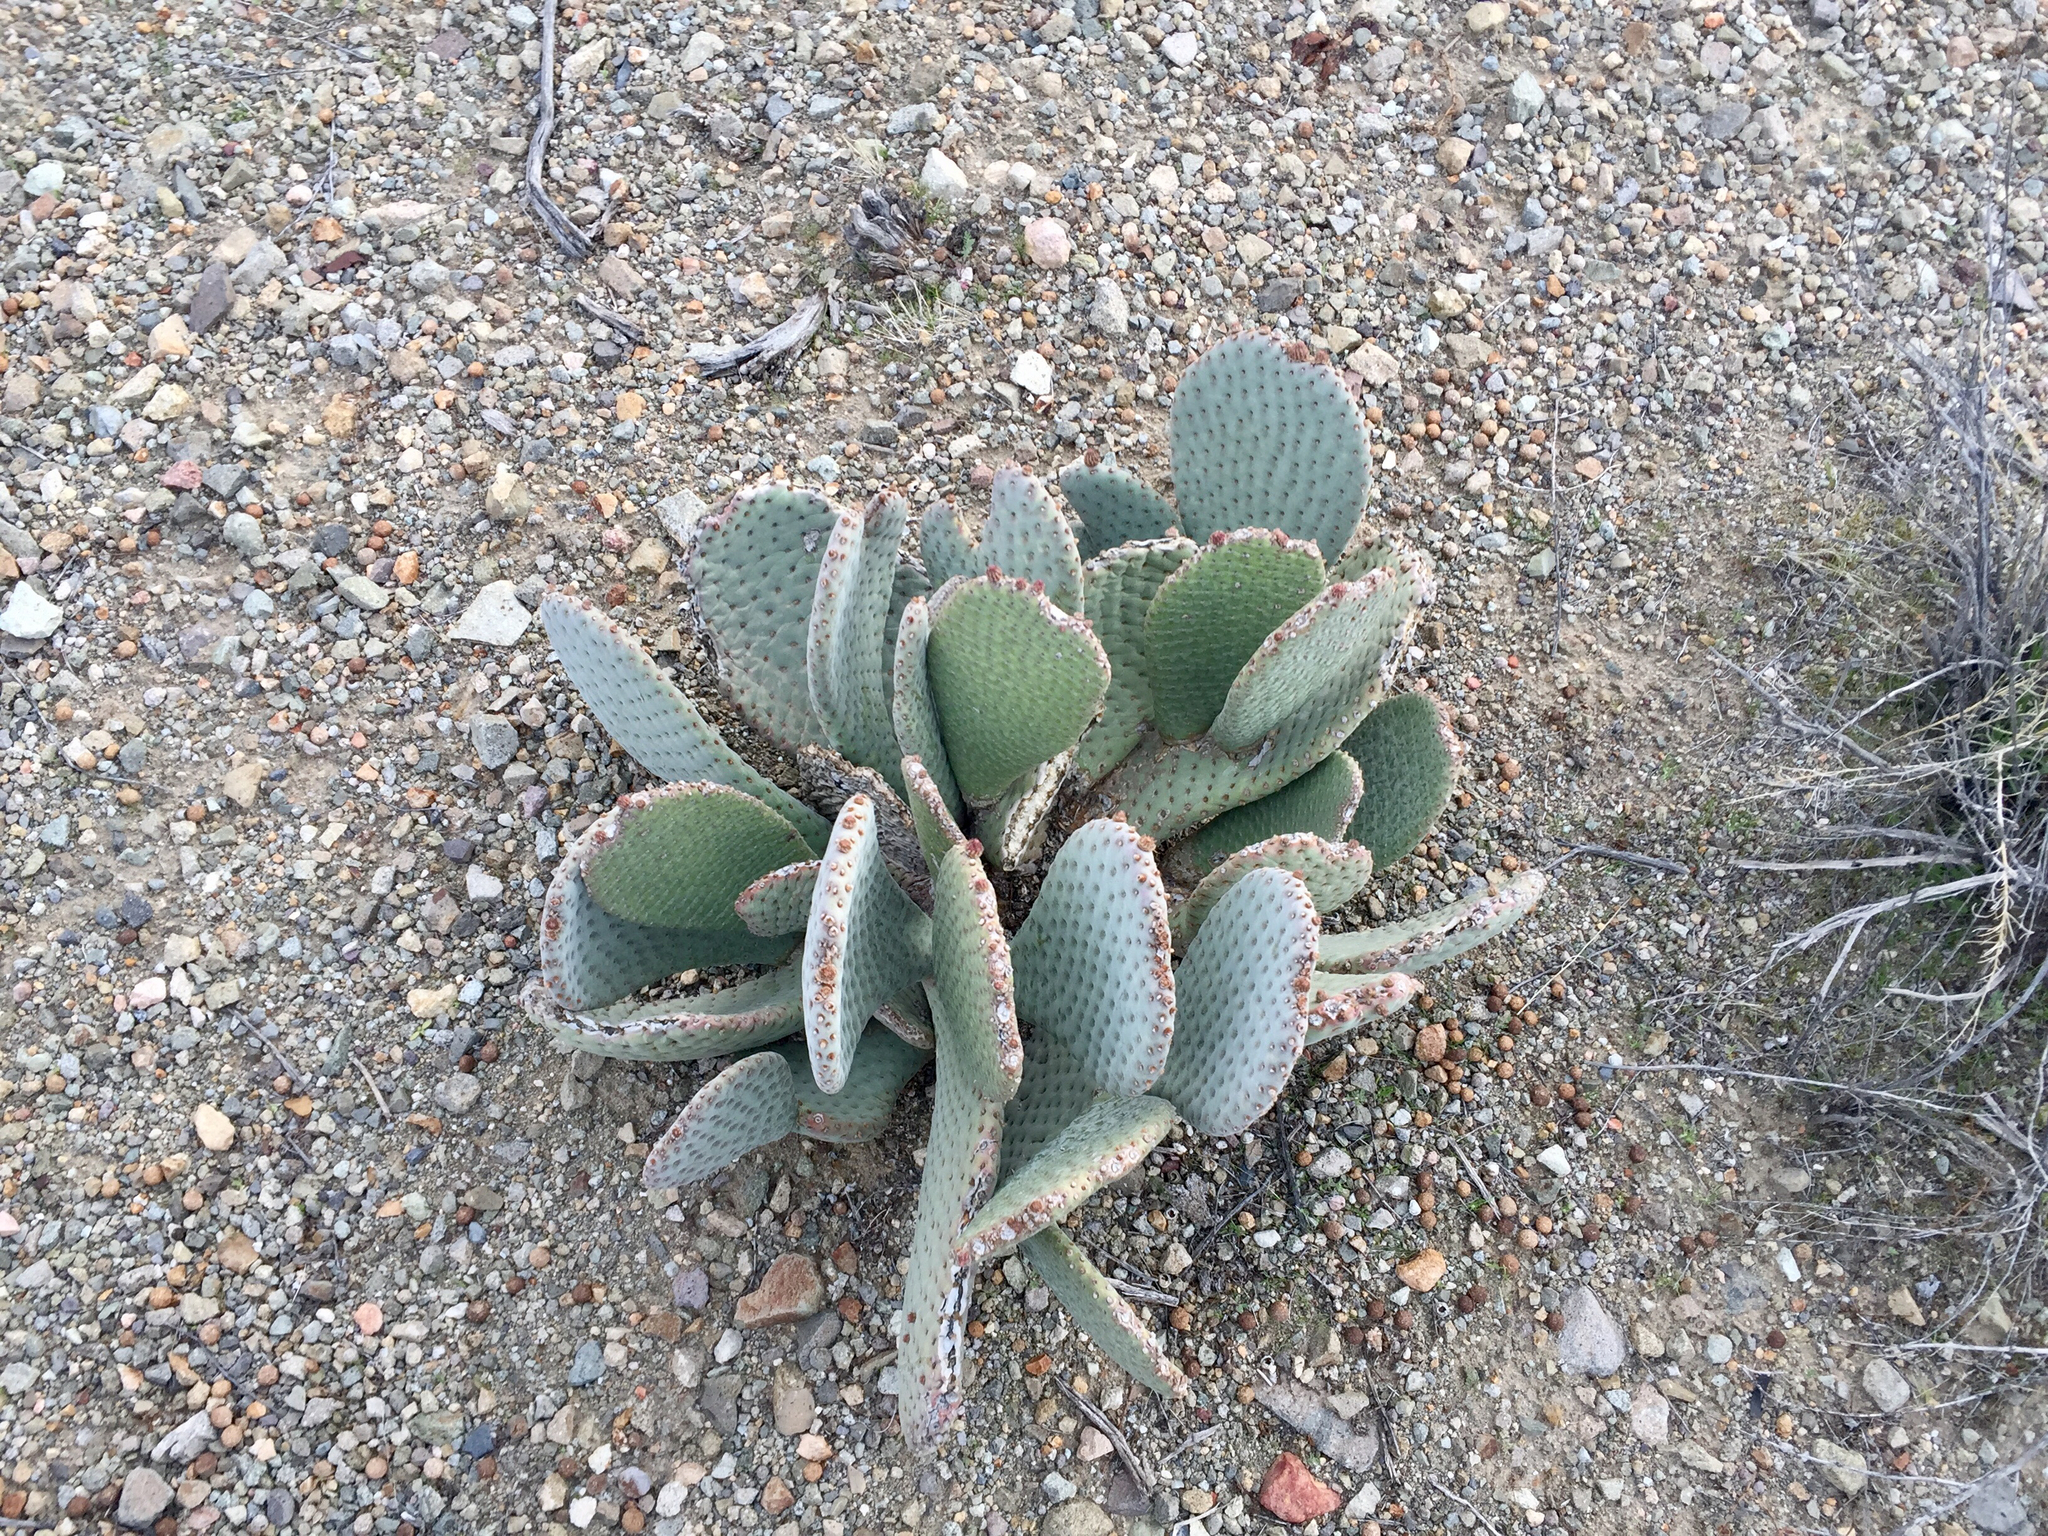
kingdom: Plantae
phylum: Tracheophyta
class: Magnoliopsida
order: Caryophyllales
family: Cactaceae
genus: Opuntia
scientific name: Opuntia basilaris
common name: Beavertail prickly-pear
